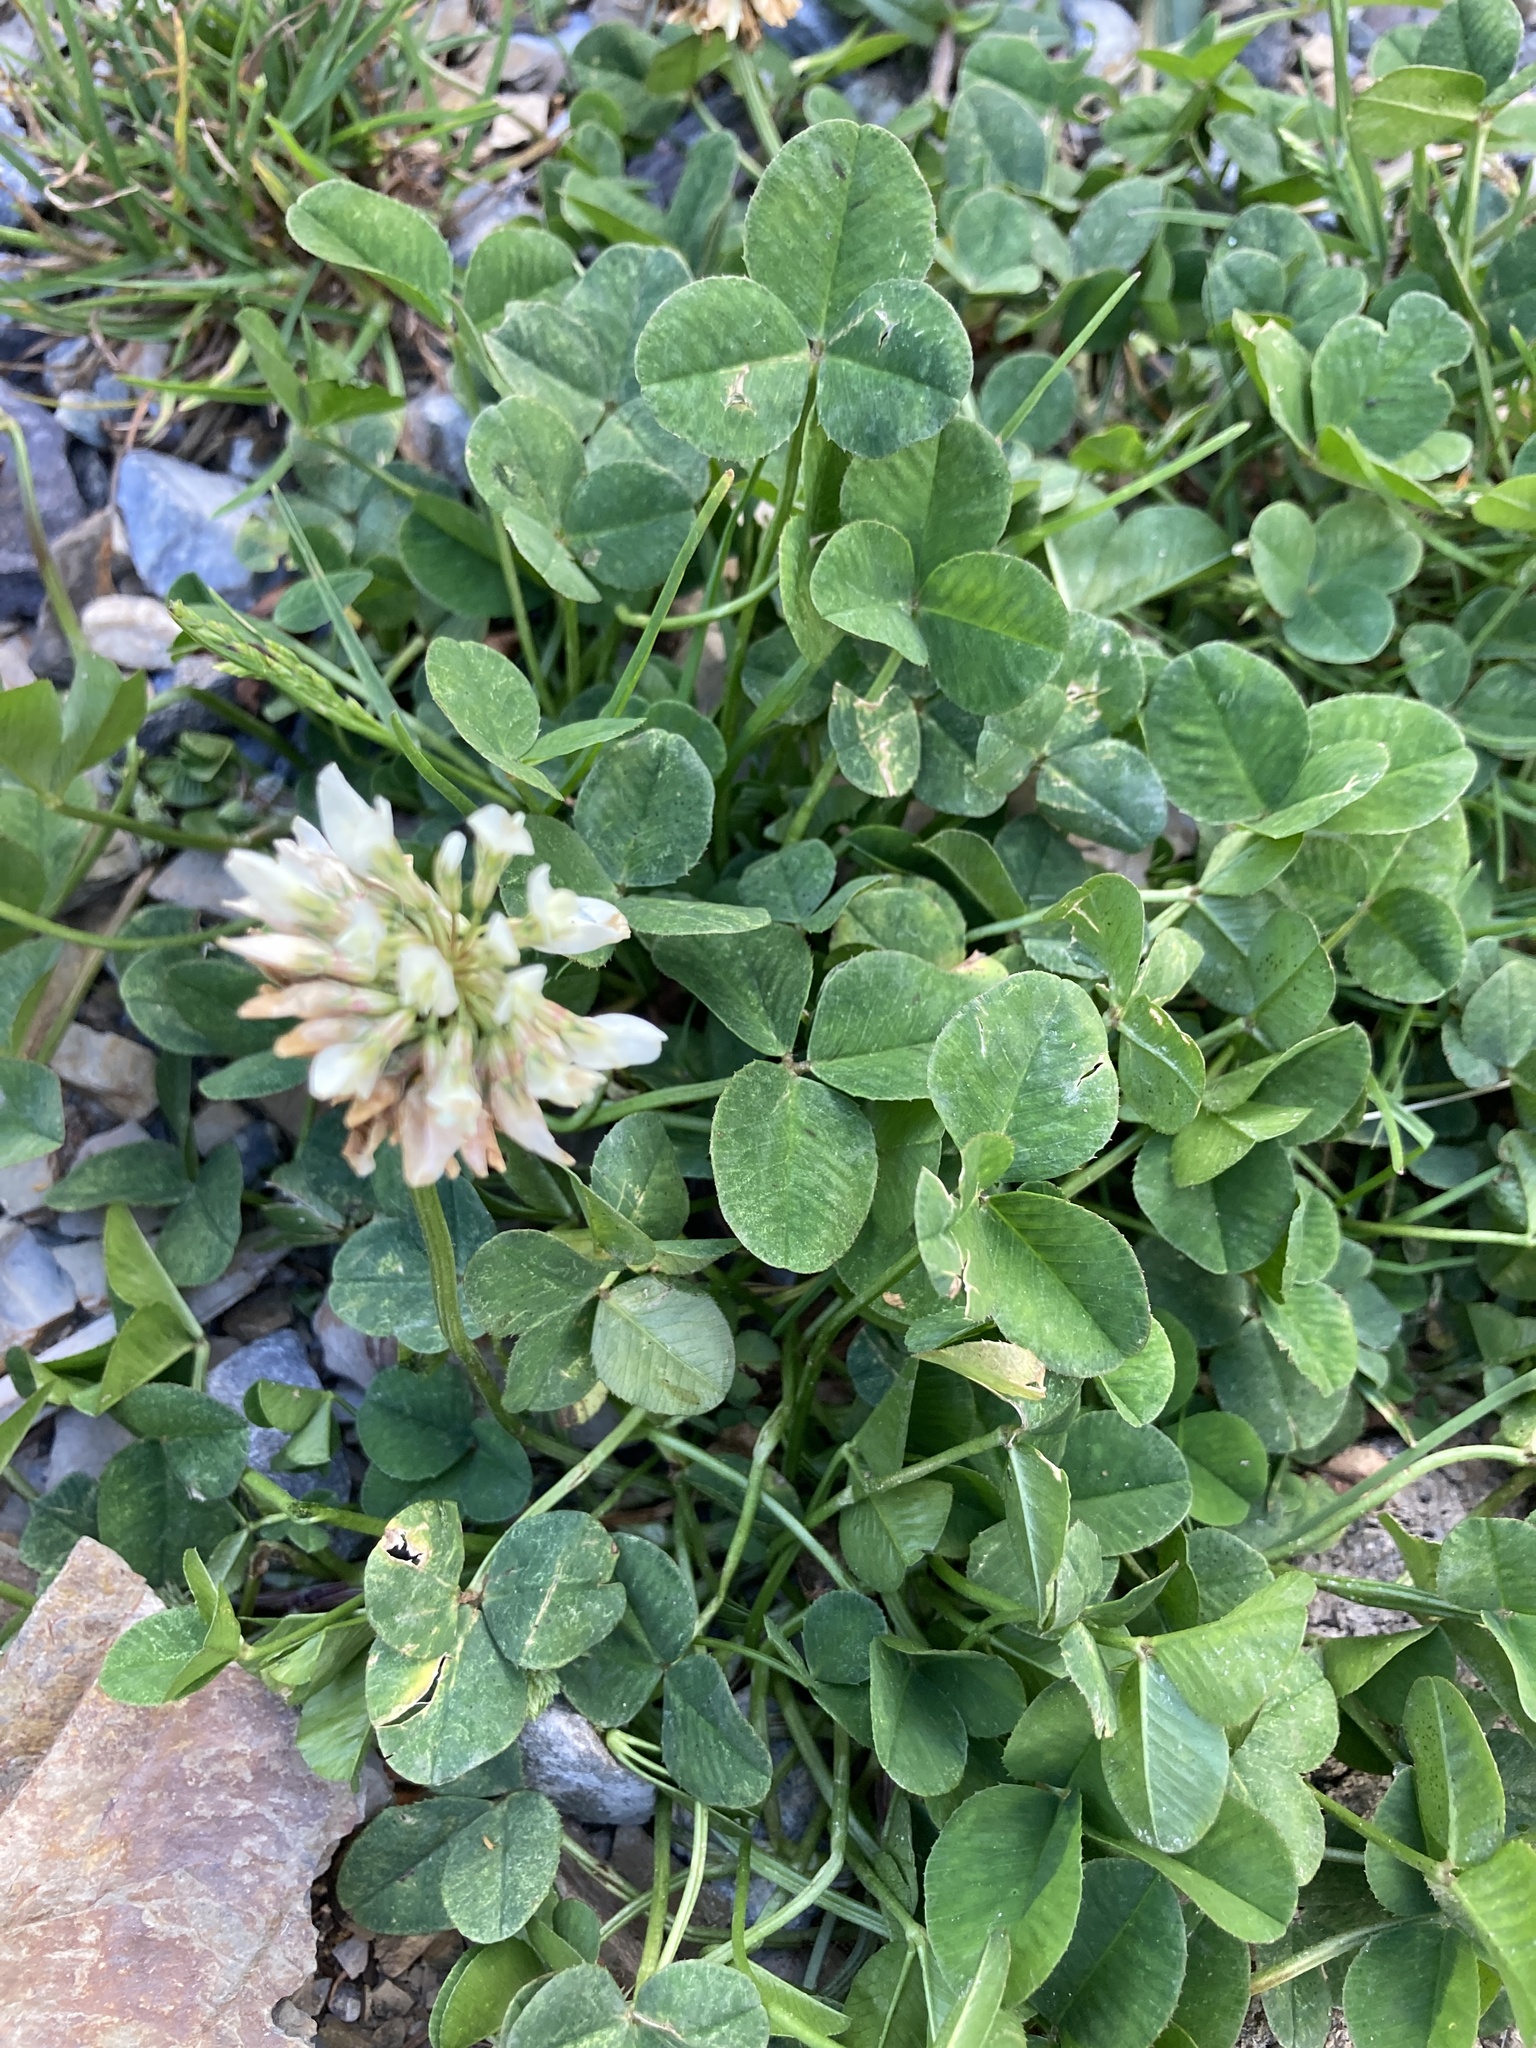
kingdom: Plantae
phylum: Tracheophyta
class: Magnoliopsida
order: Fabales
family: Fabaceae
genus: Trifolium
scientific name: Trifolium repens
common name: White clover
